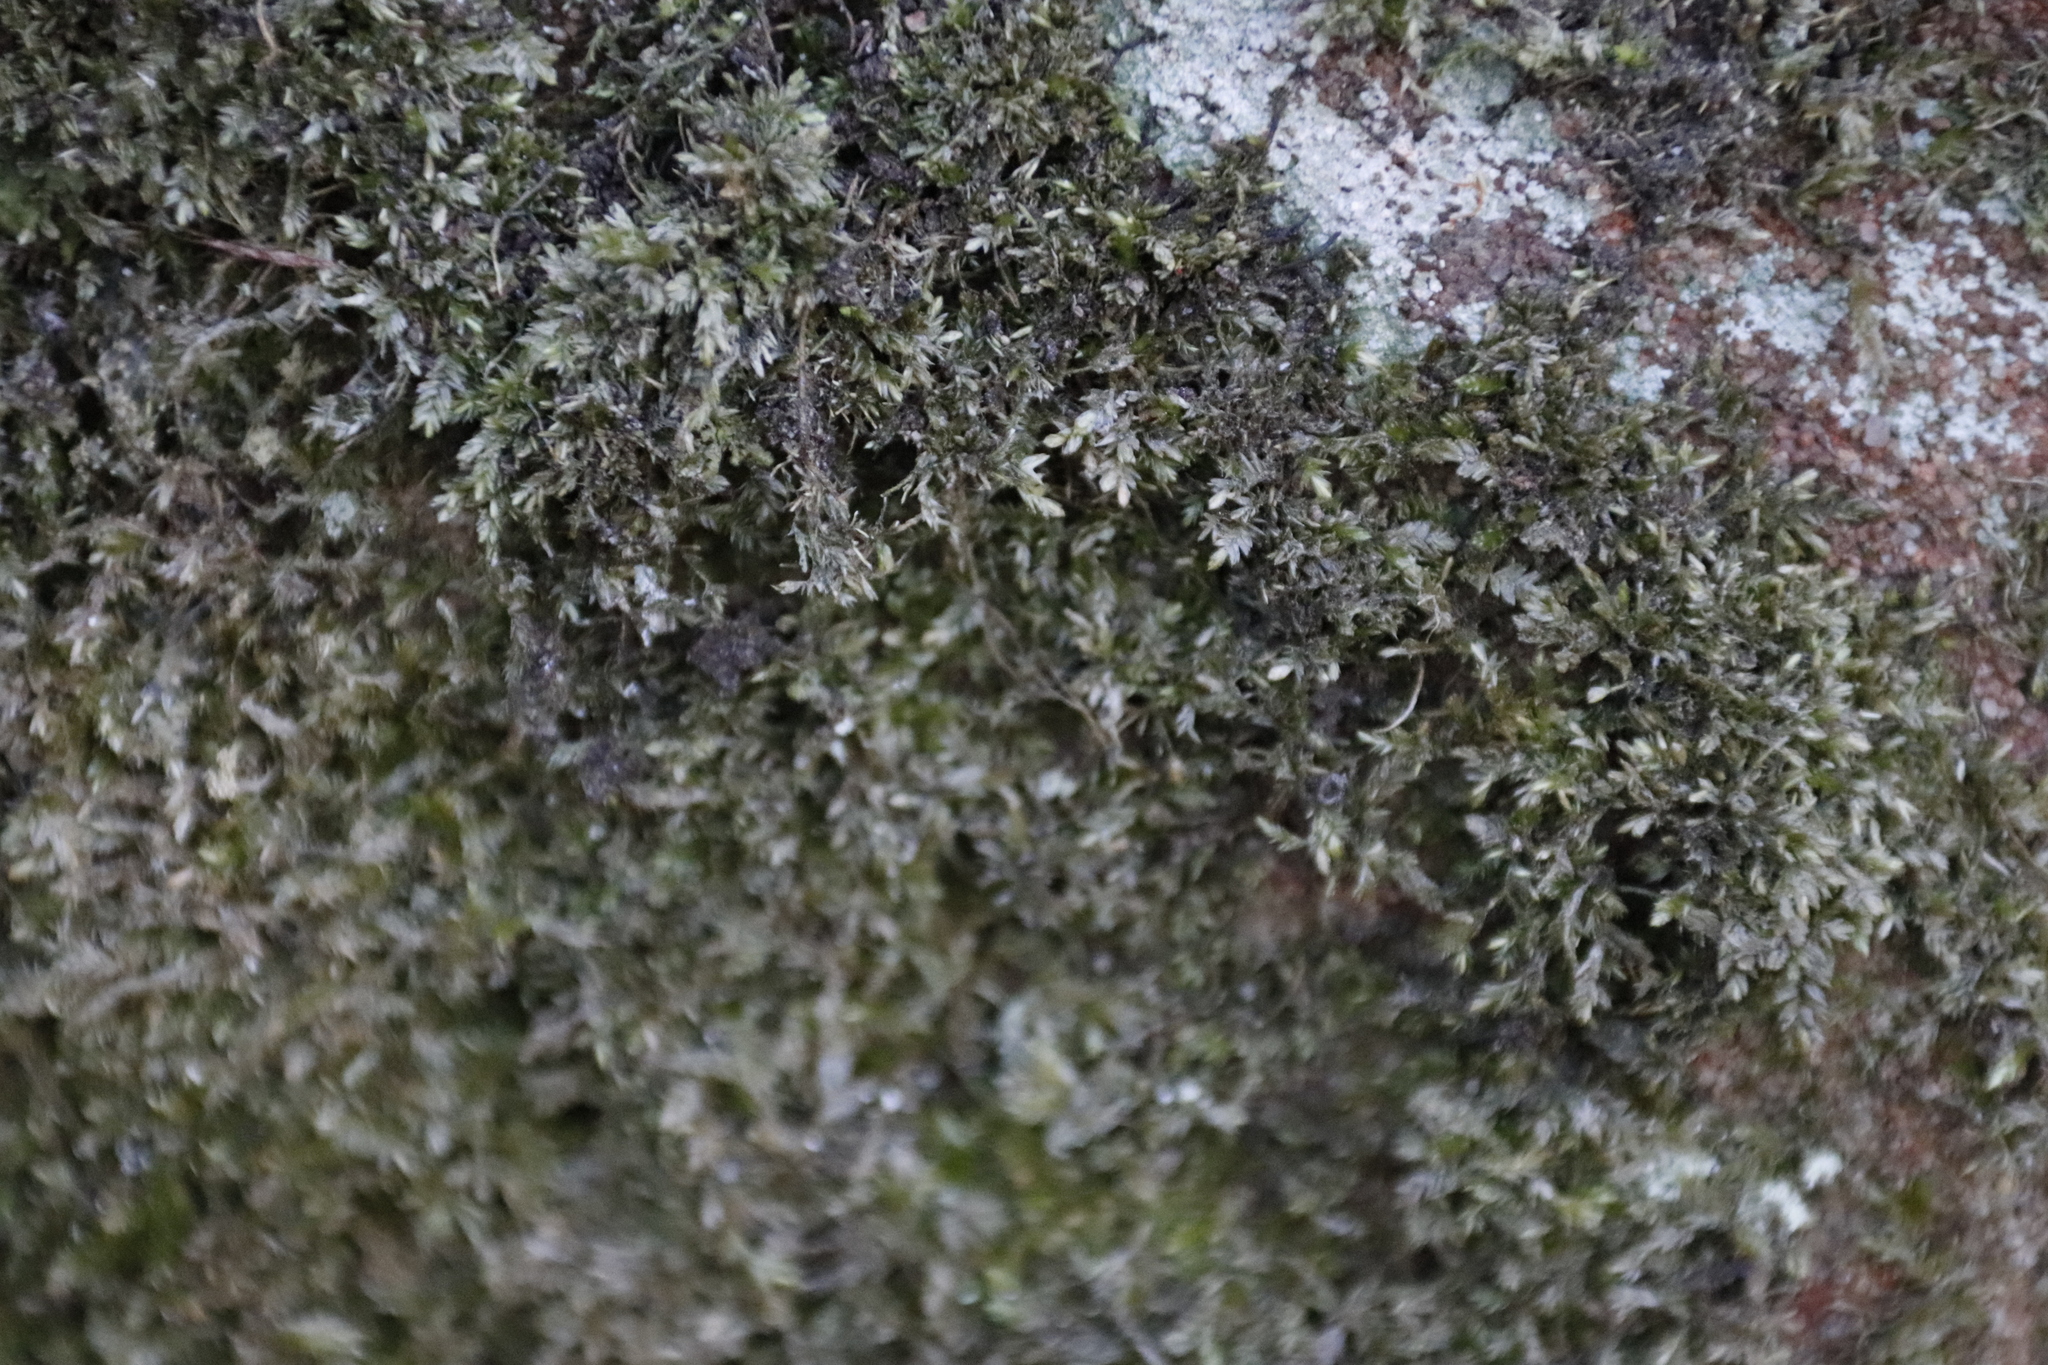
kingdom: Plantae
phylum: Bryophyta
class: Bryopsida
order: Hypnales
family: Catagoniaceae
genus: Catagonium
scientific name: Catagonium nitens
